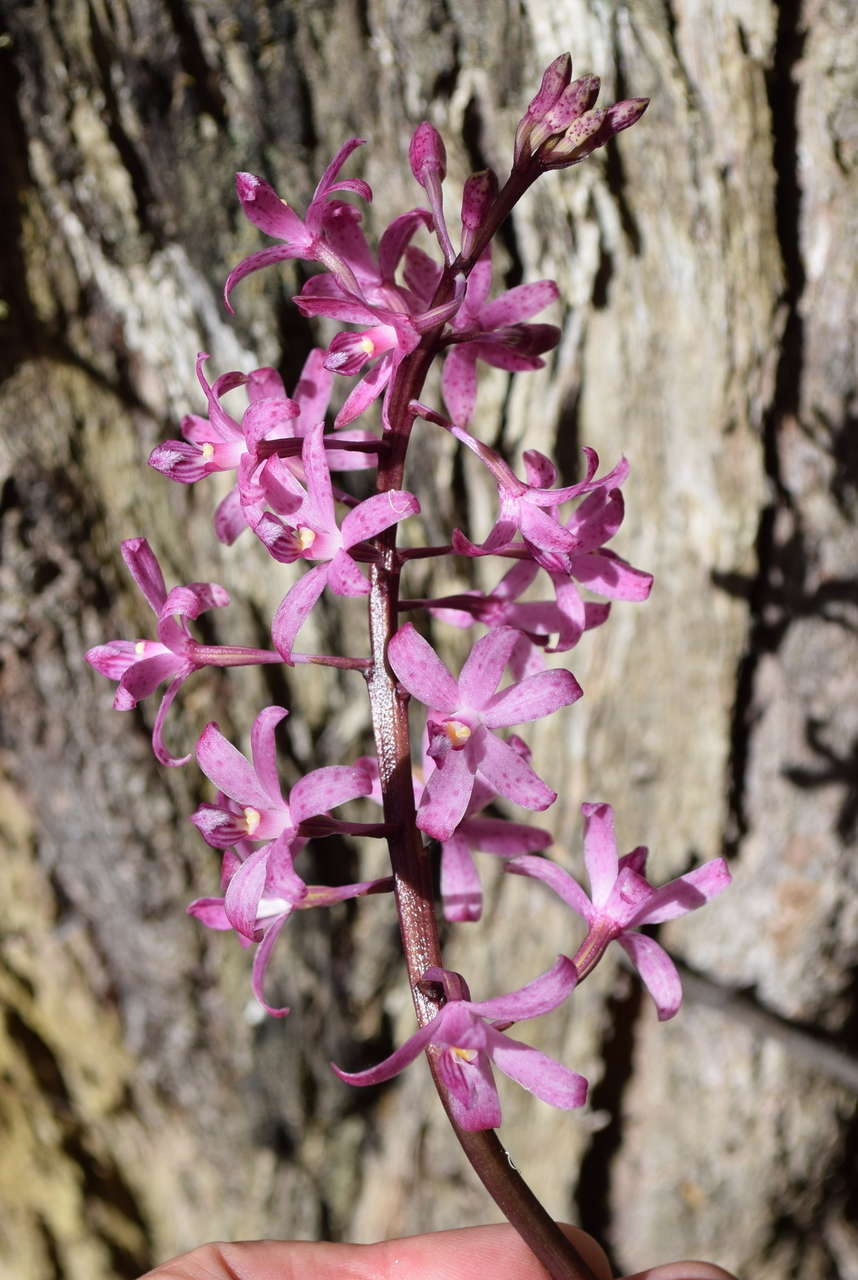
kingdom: Plantae
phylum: Tracheophyta
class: Liliopsida
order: Asparagales
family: Orchidaceae
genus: Dipodium
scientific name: Dipodium roseum
